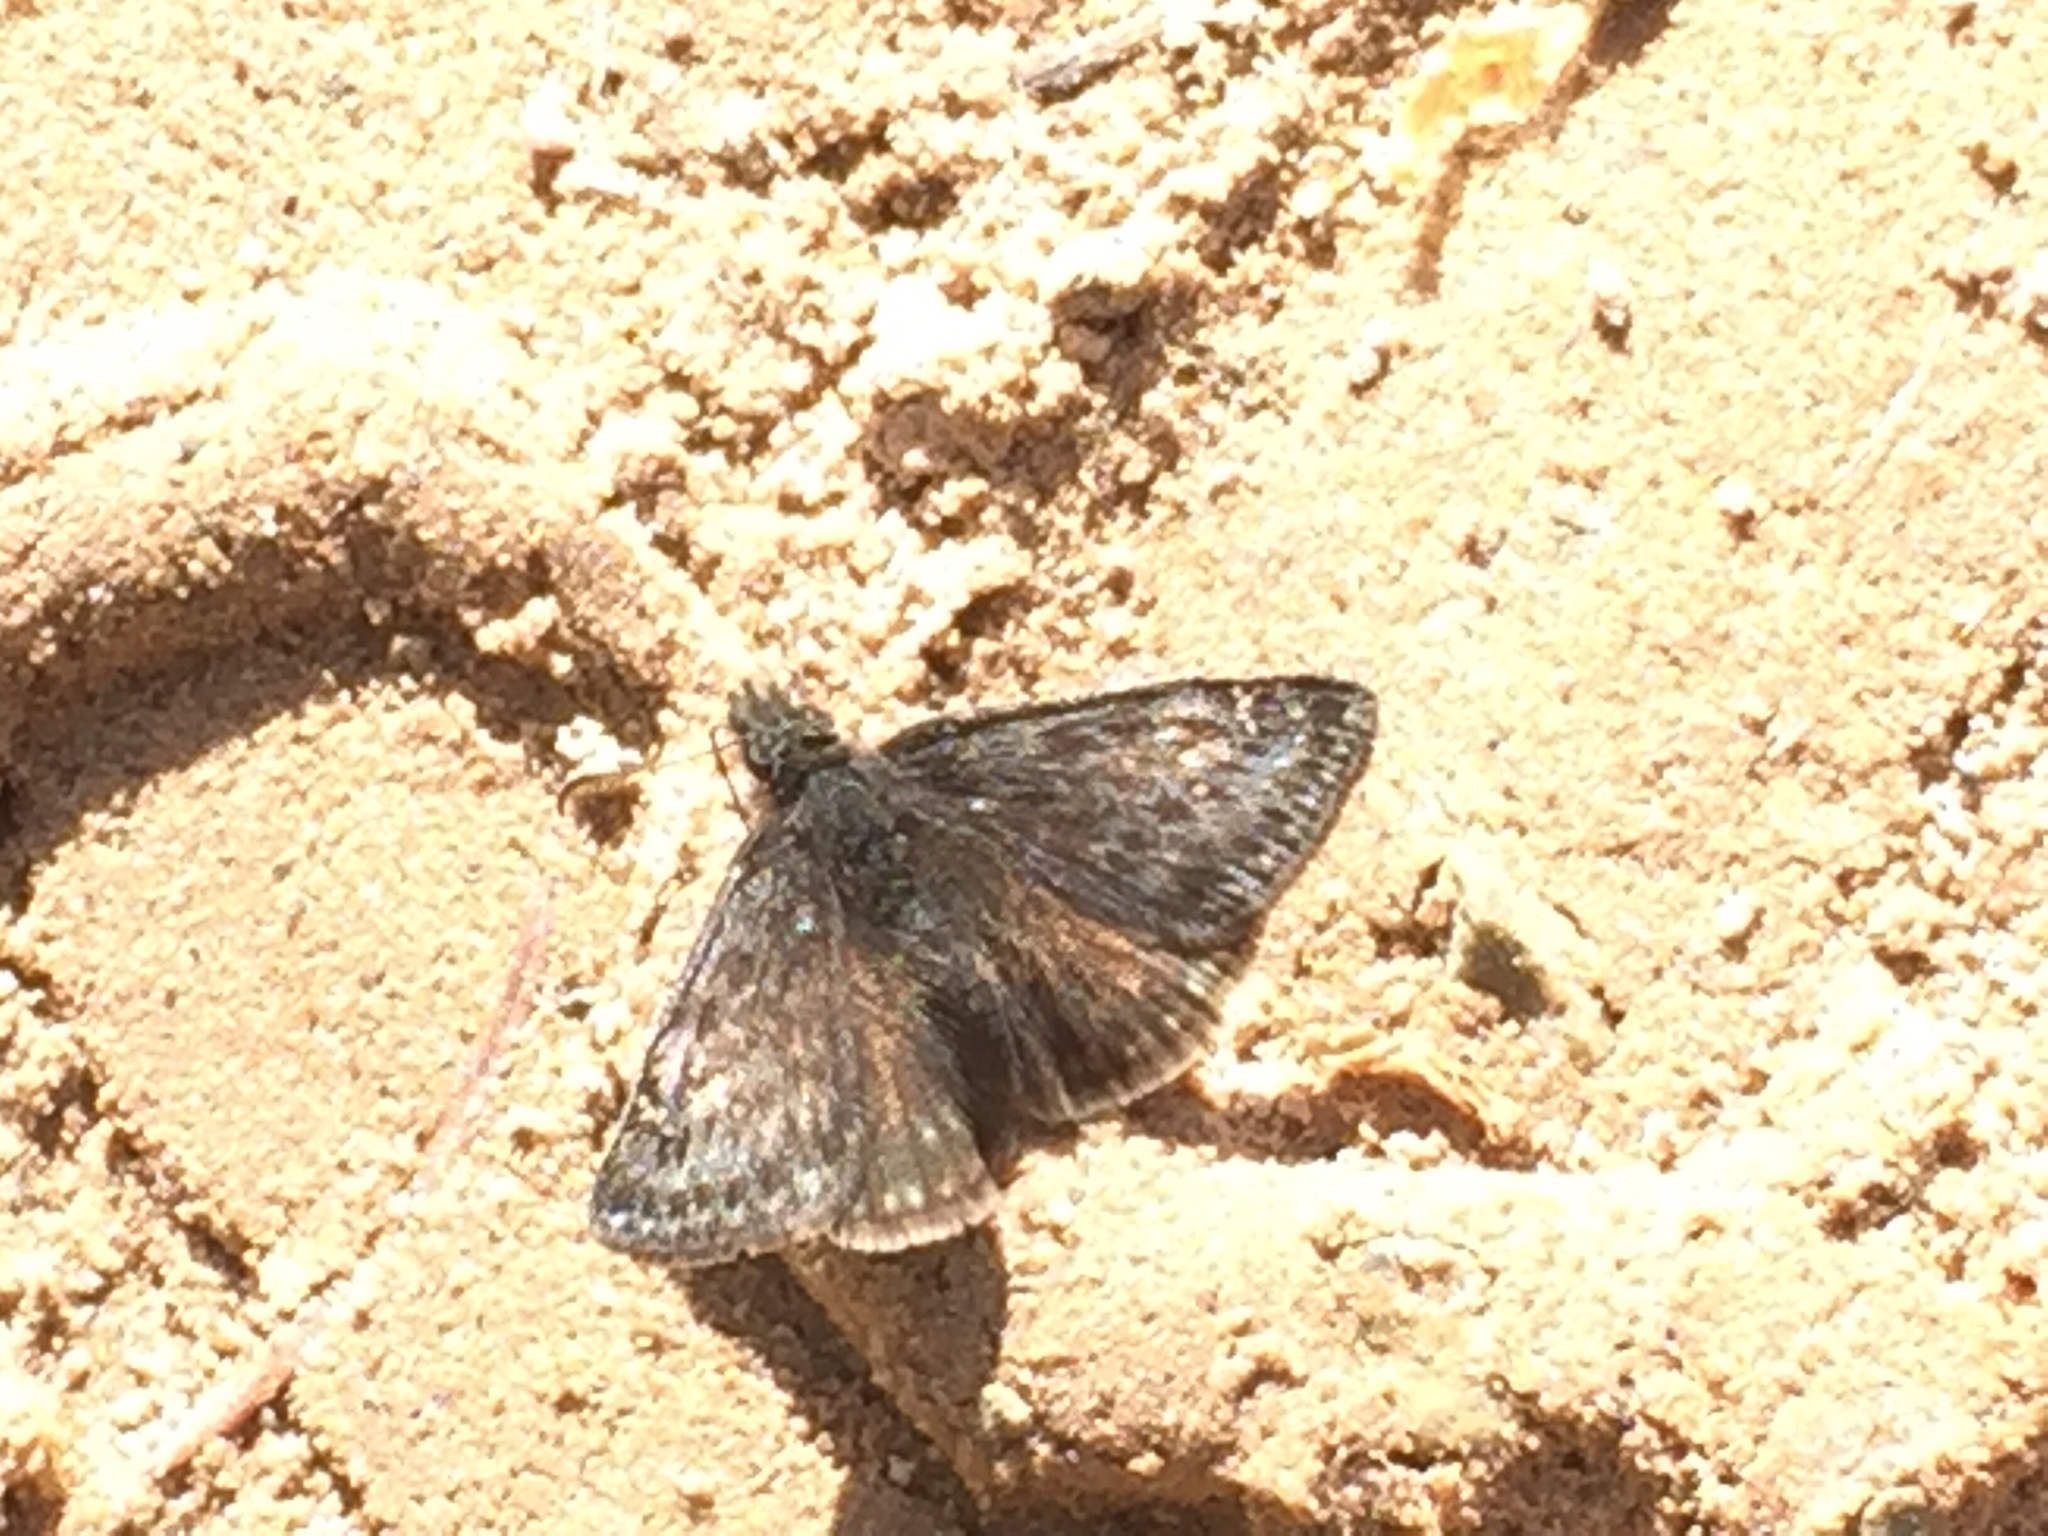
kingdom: Animalia
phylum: Arthropoda
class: Insecta
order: Lepidoptera
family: Hesperiidae
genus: Erynnis
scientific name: Erynnis afranius
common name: Afranius duskywing
